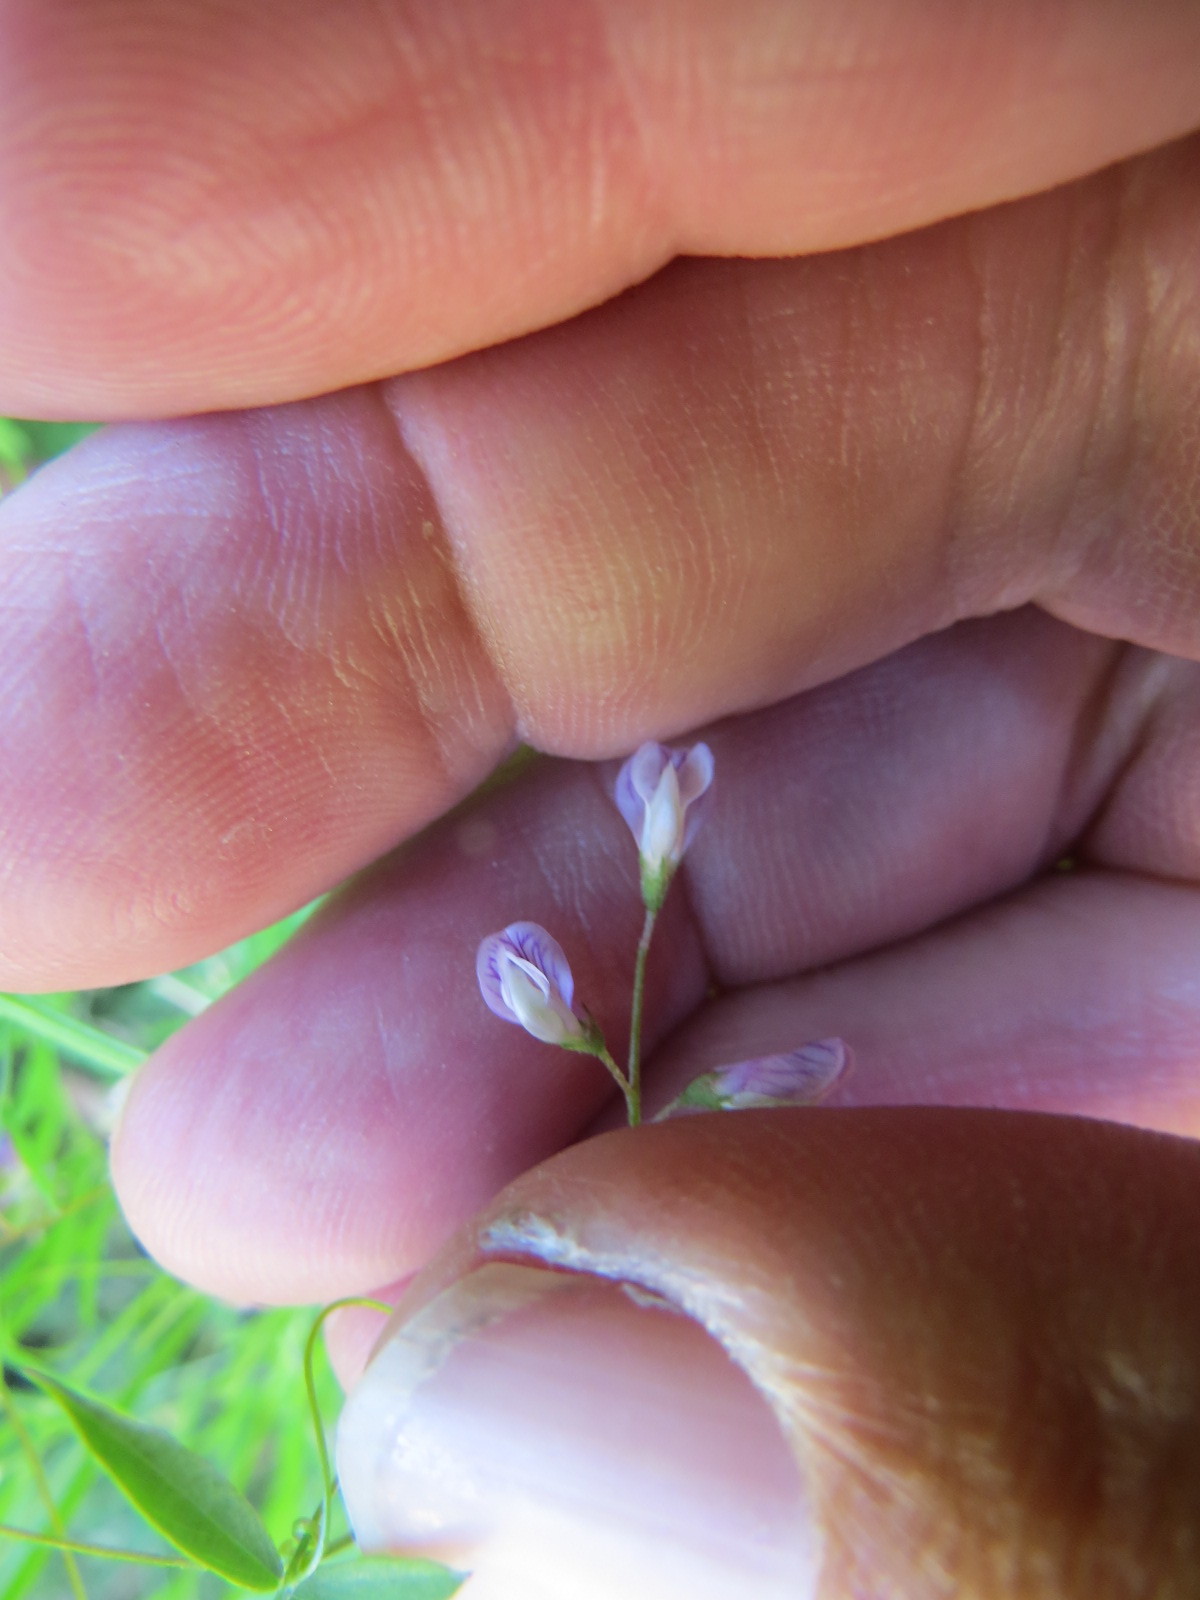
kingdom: Plantae
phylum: Tracheophyta
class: Magnoliopsida
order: Fabales
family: Fabaceae
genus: Vicia
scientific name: Vicia tetrasperma
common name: Smooth tare
